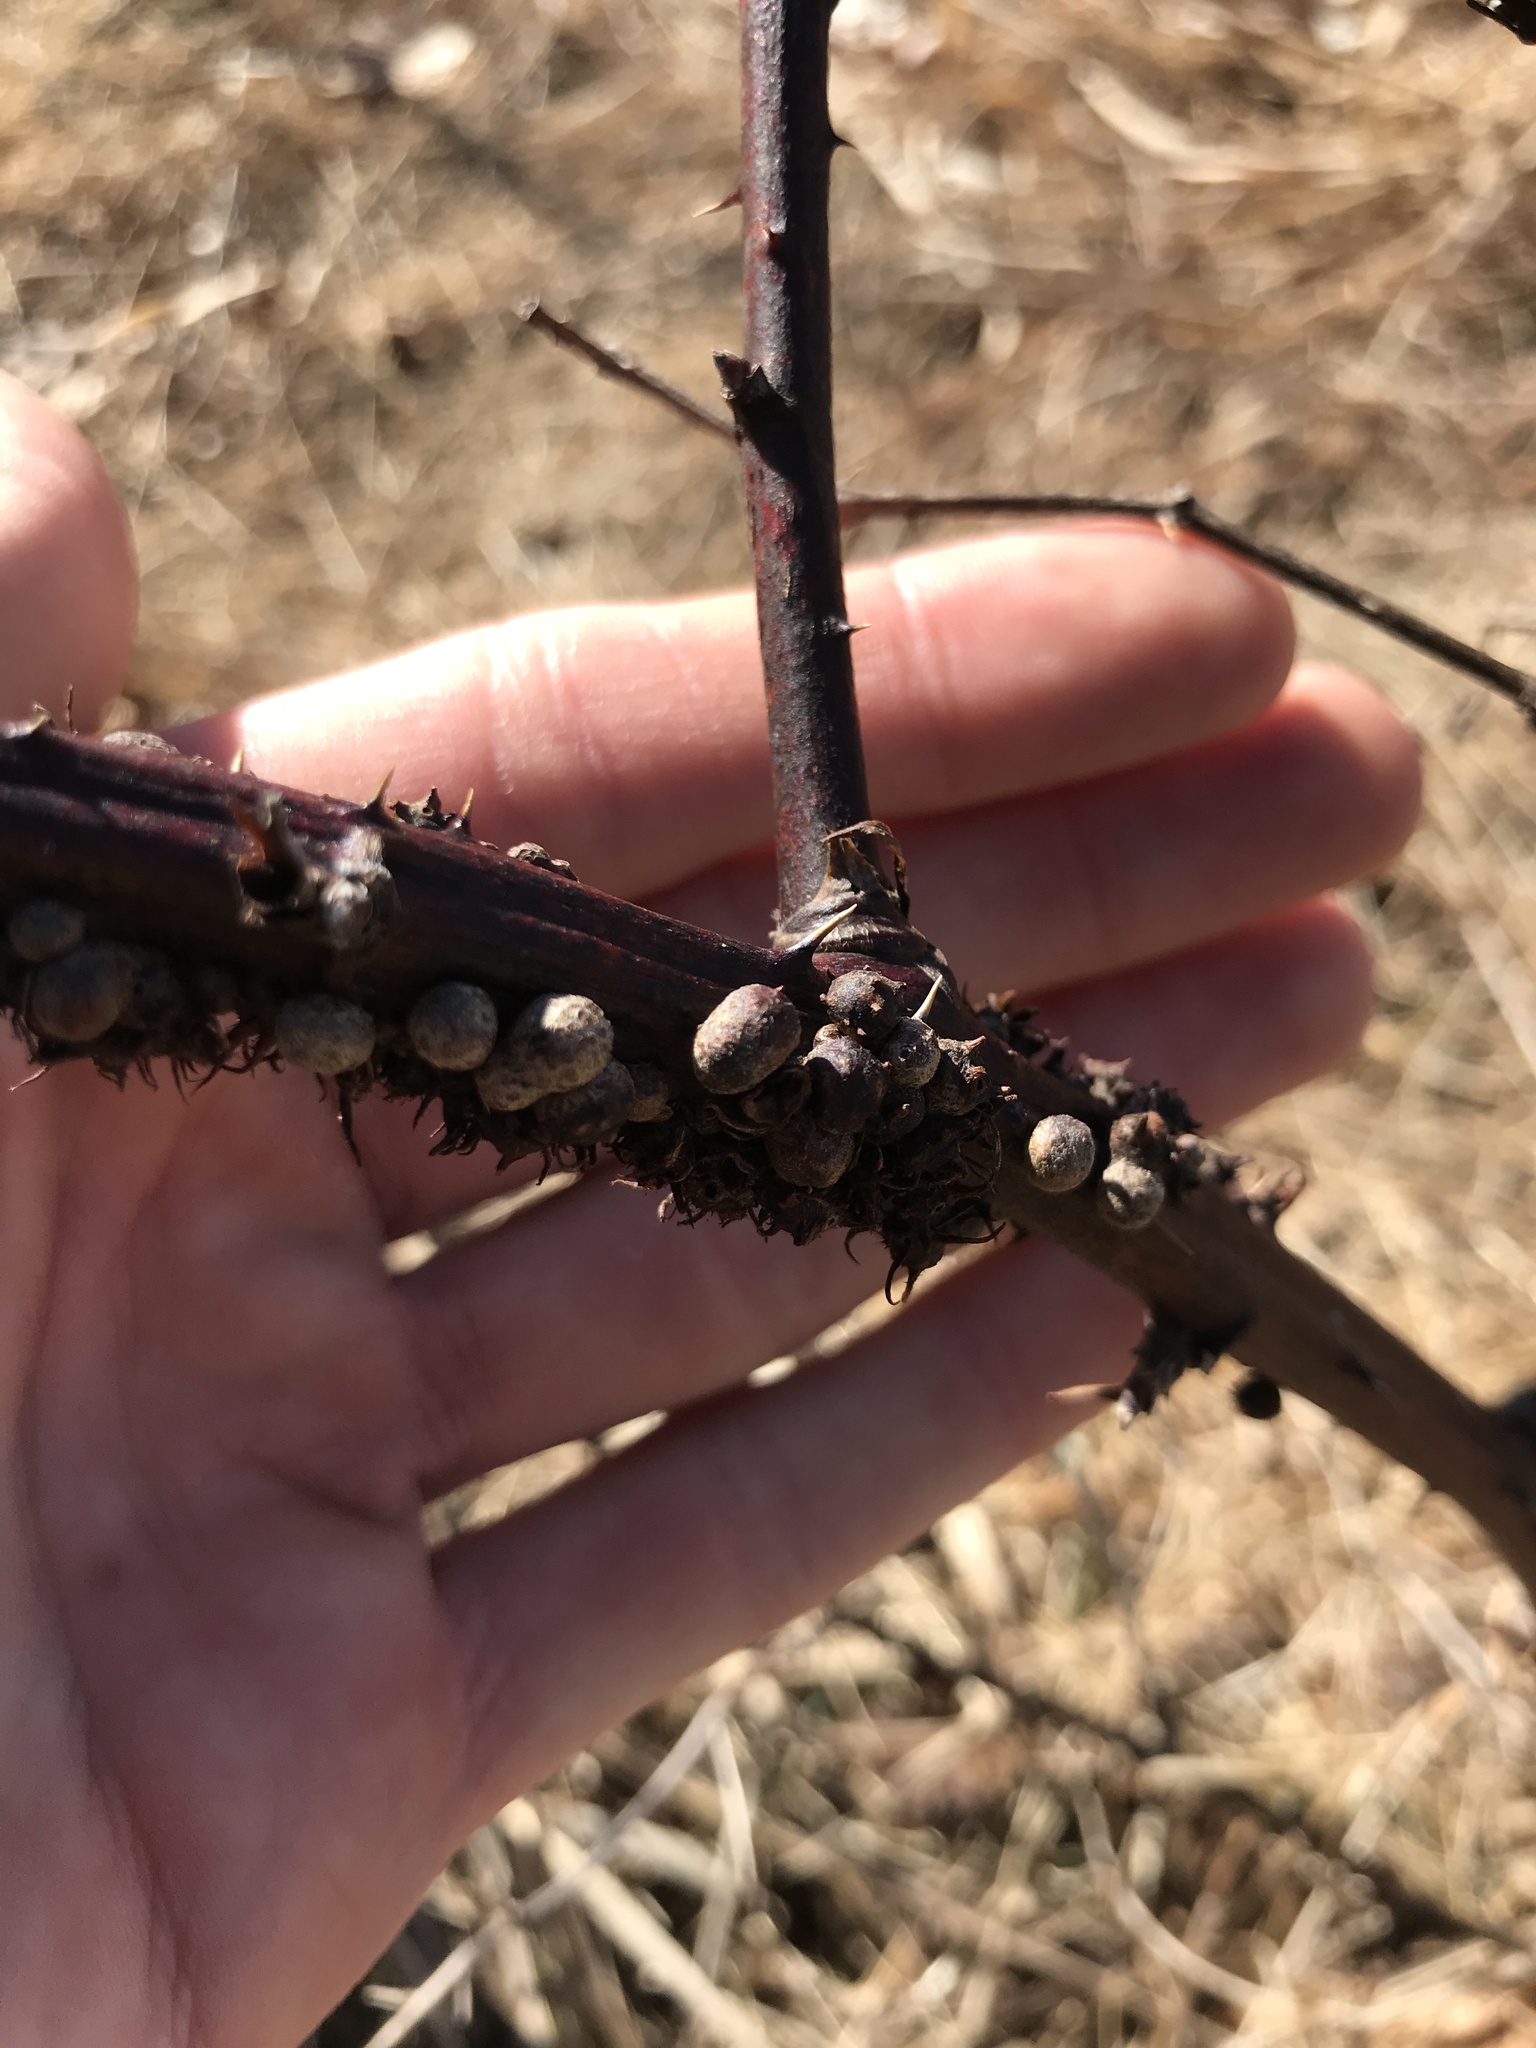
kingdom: Animalia
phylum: Arthropoda
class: Insecta
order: Hymenoptera
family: Cynipidae
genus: Diastrophus
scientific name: Diastrophus
